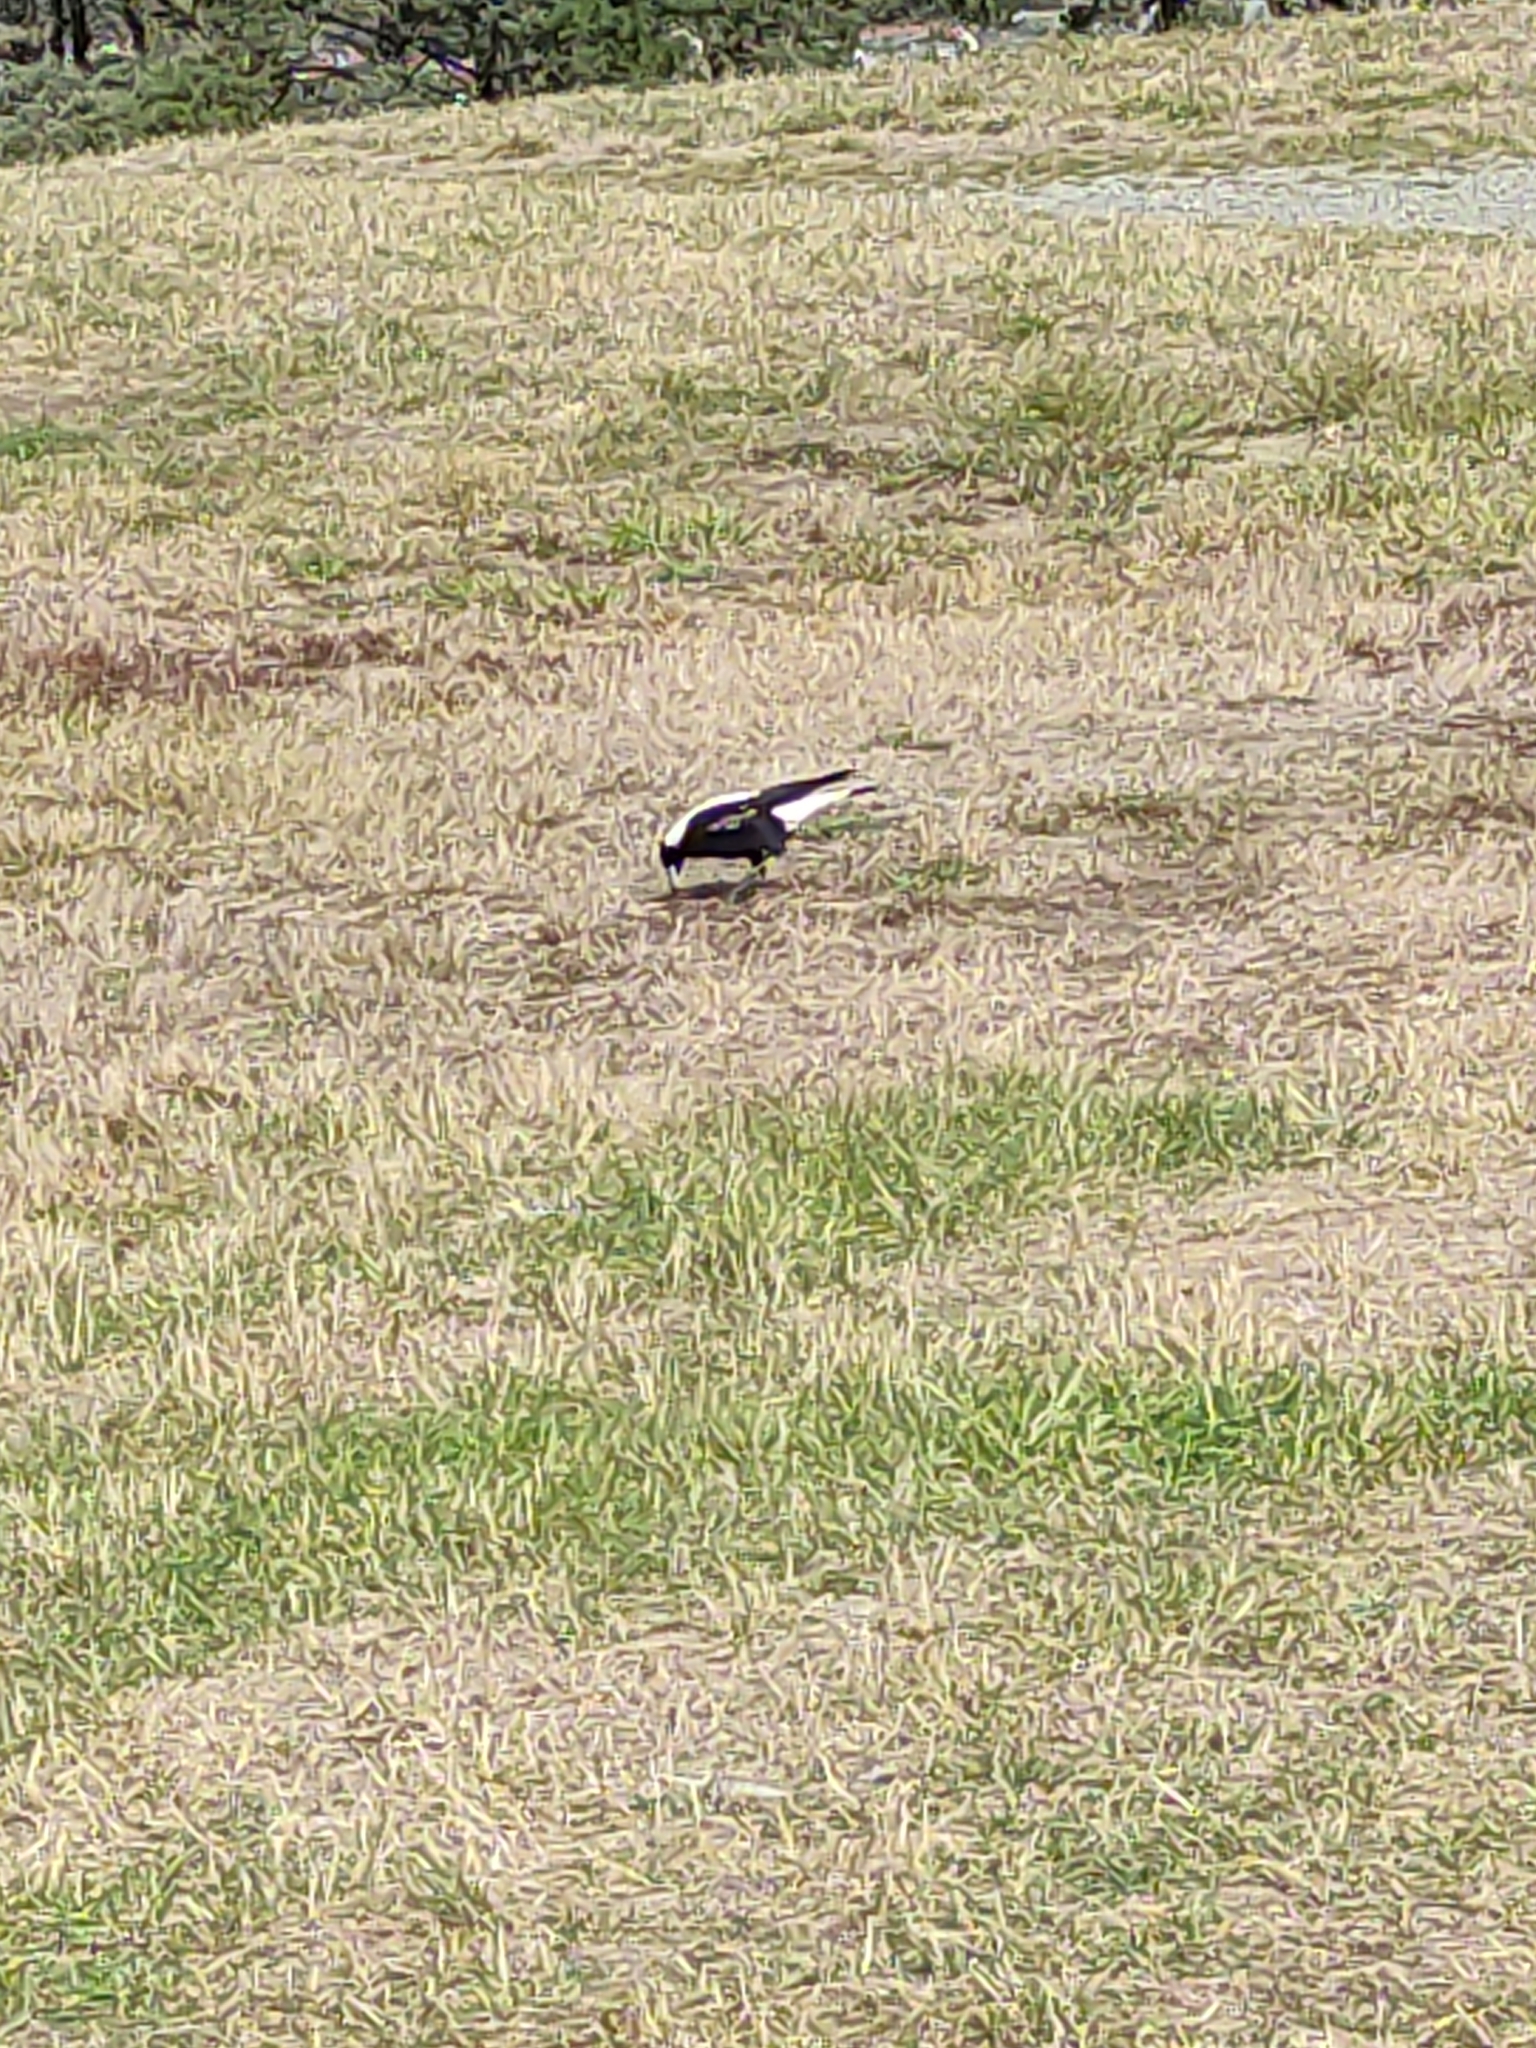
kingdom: Animalia
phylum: Chordata
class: Aves
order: Passeriformes
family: Cracticidae
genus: Gymnorhina
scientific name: Gymnorhina tibicen
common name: Australian magpie
